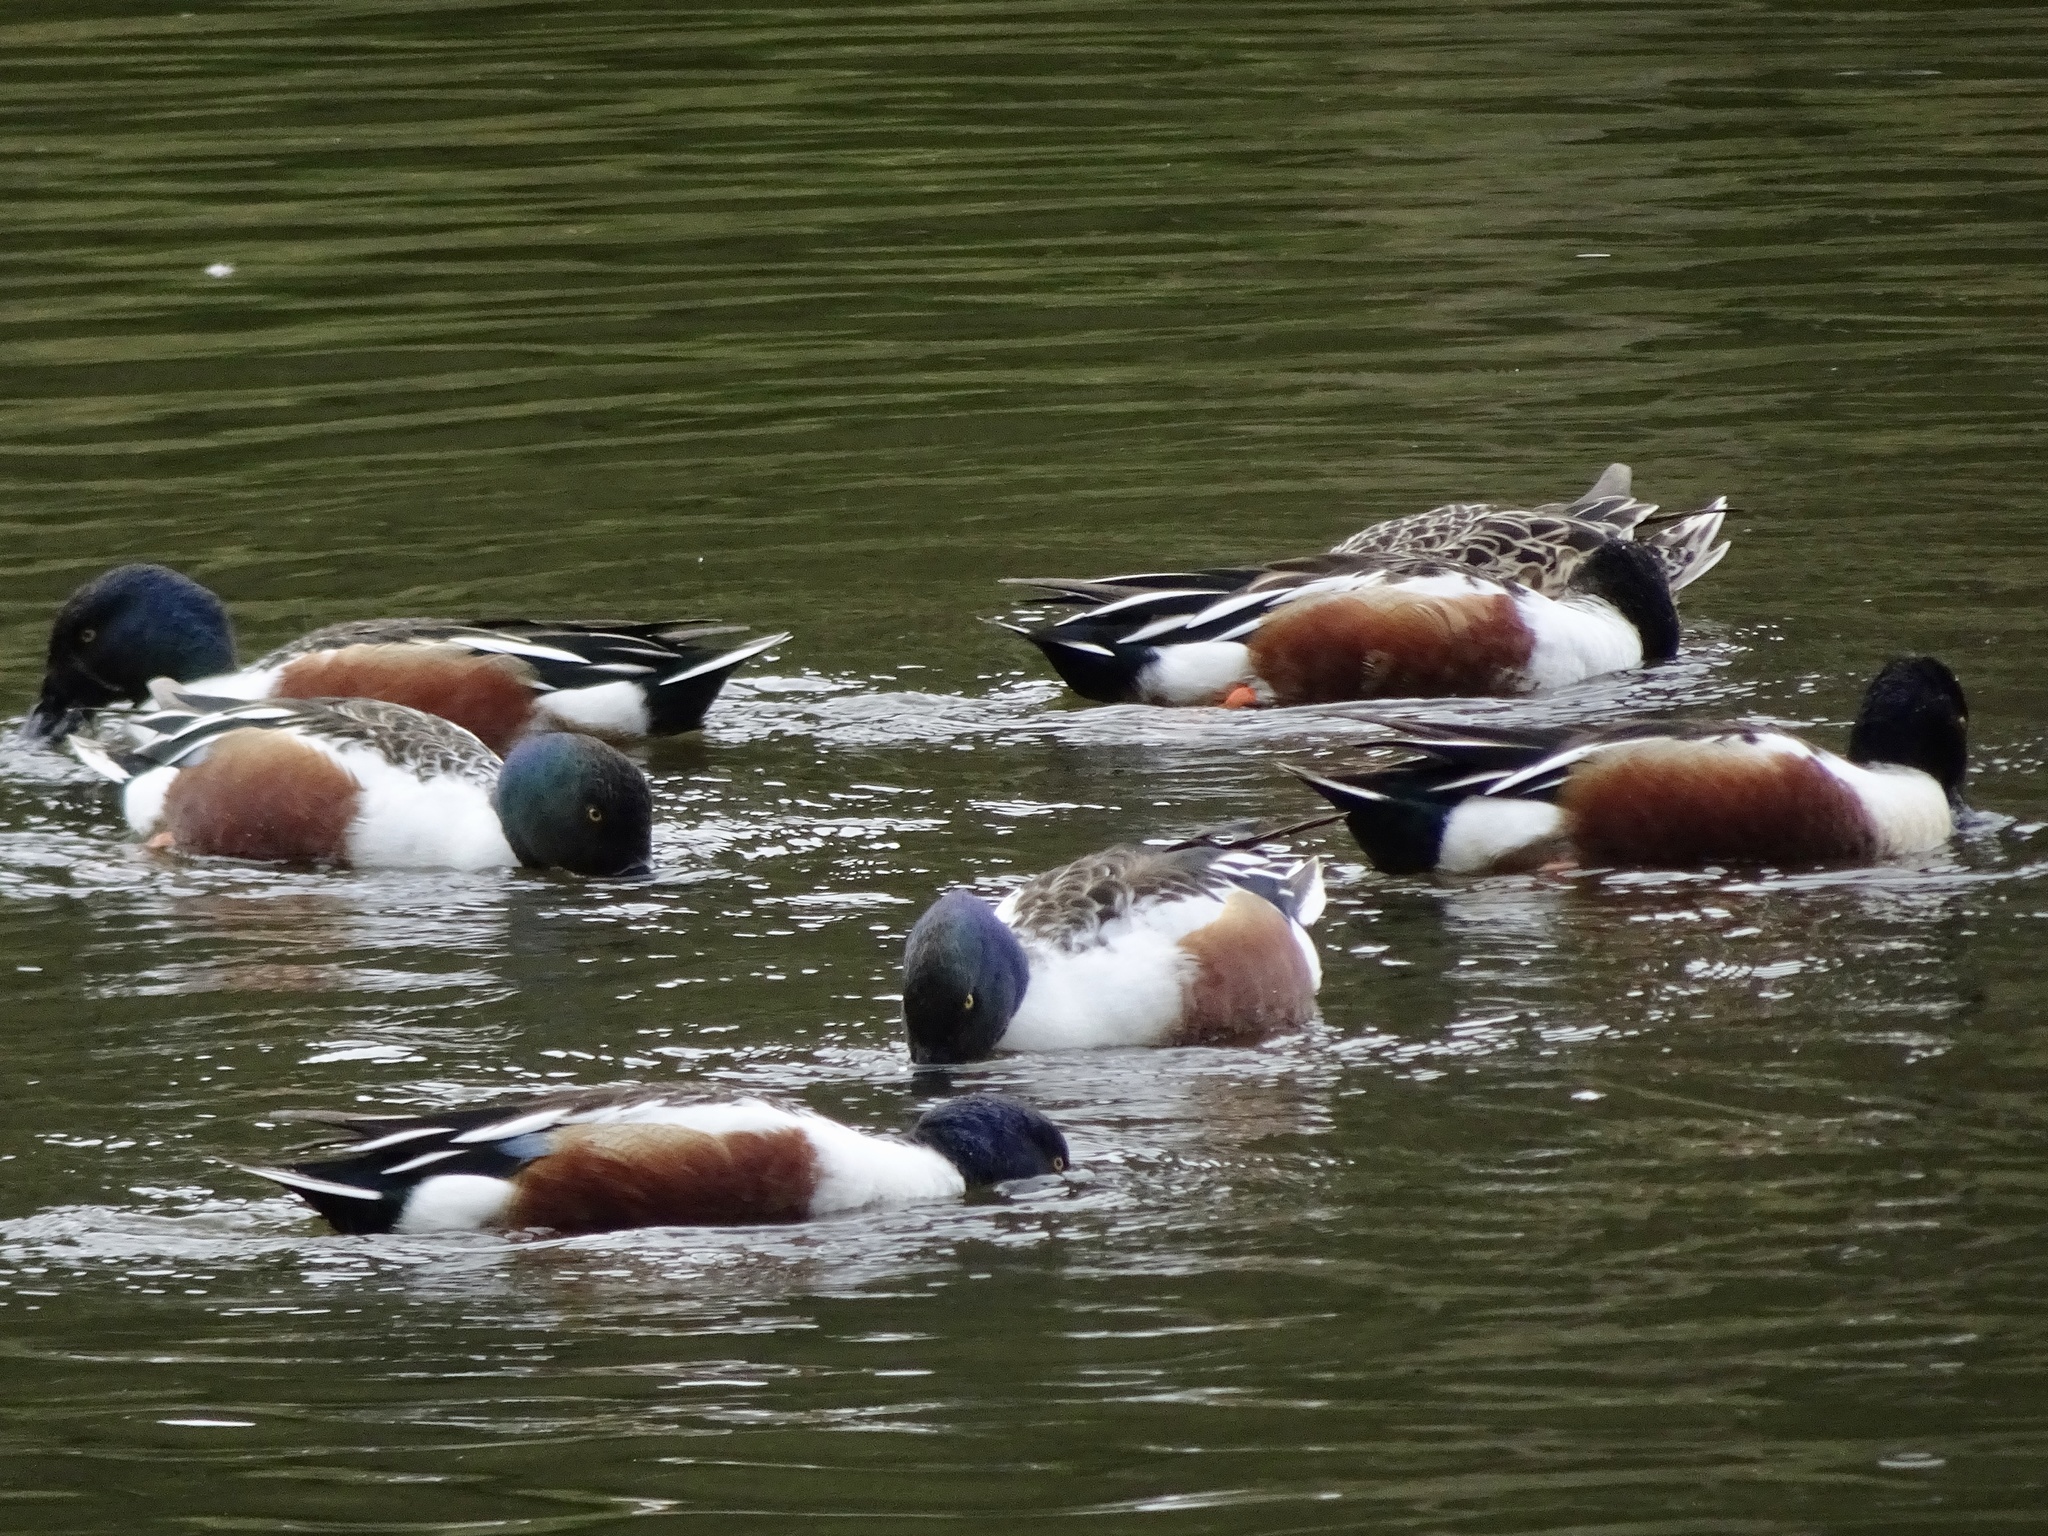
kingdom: Animalia
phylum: Chordata
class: Aves
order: Anseriformes
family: Anatidae
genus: Spatula
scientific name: Spatula clypeata
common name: Northern shoveler
